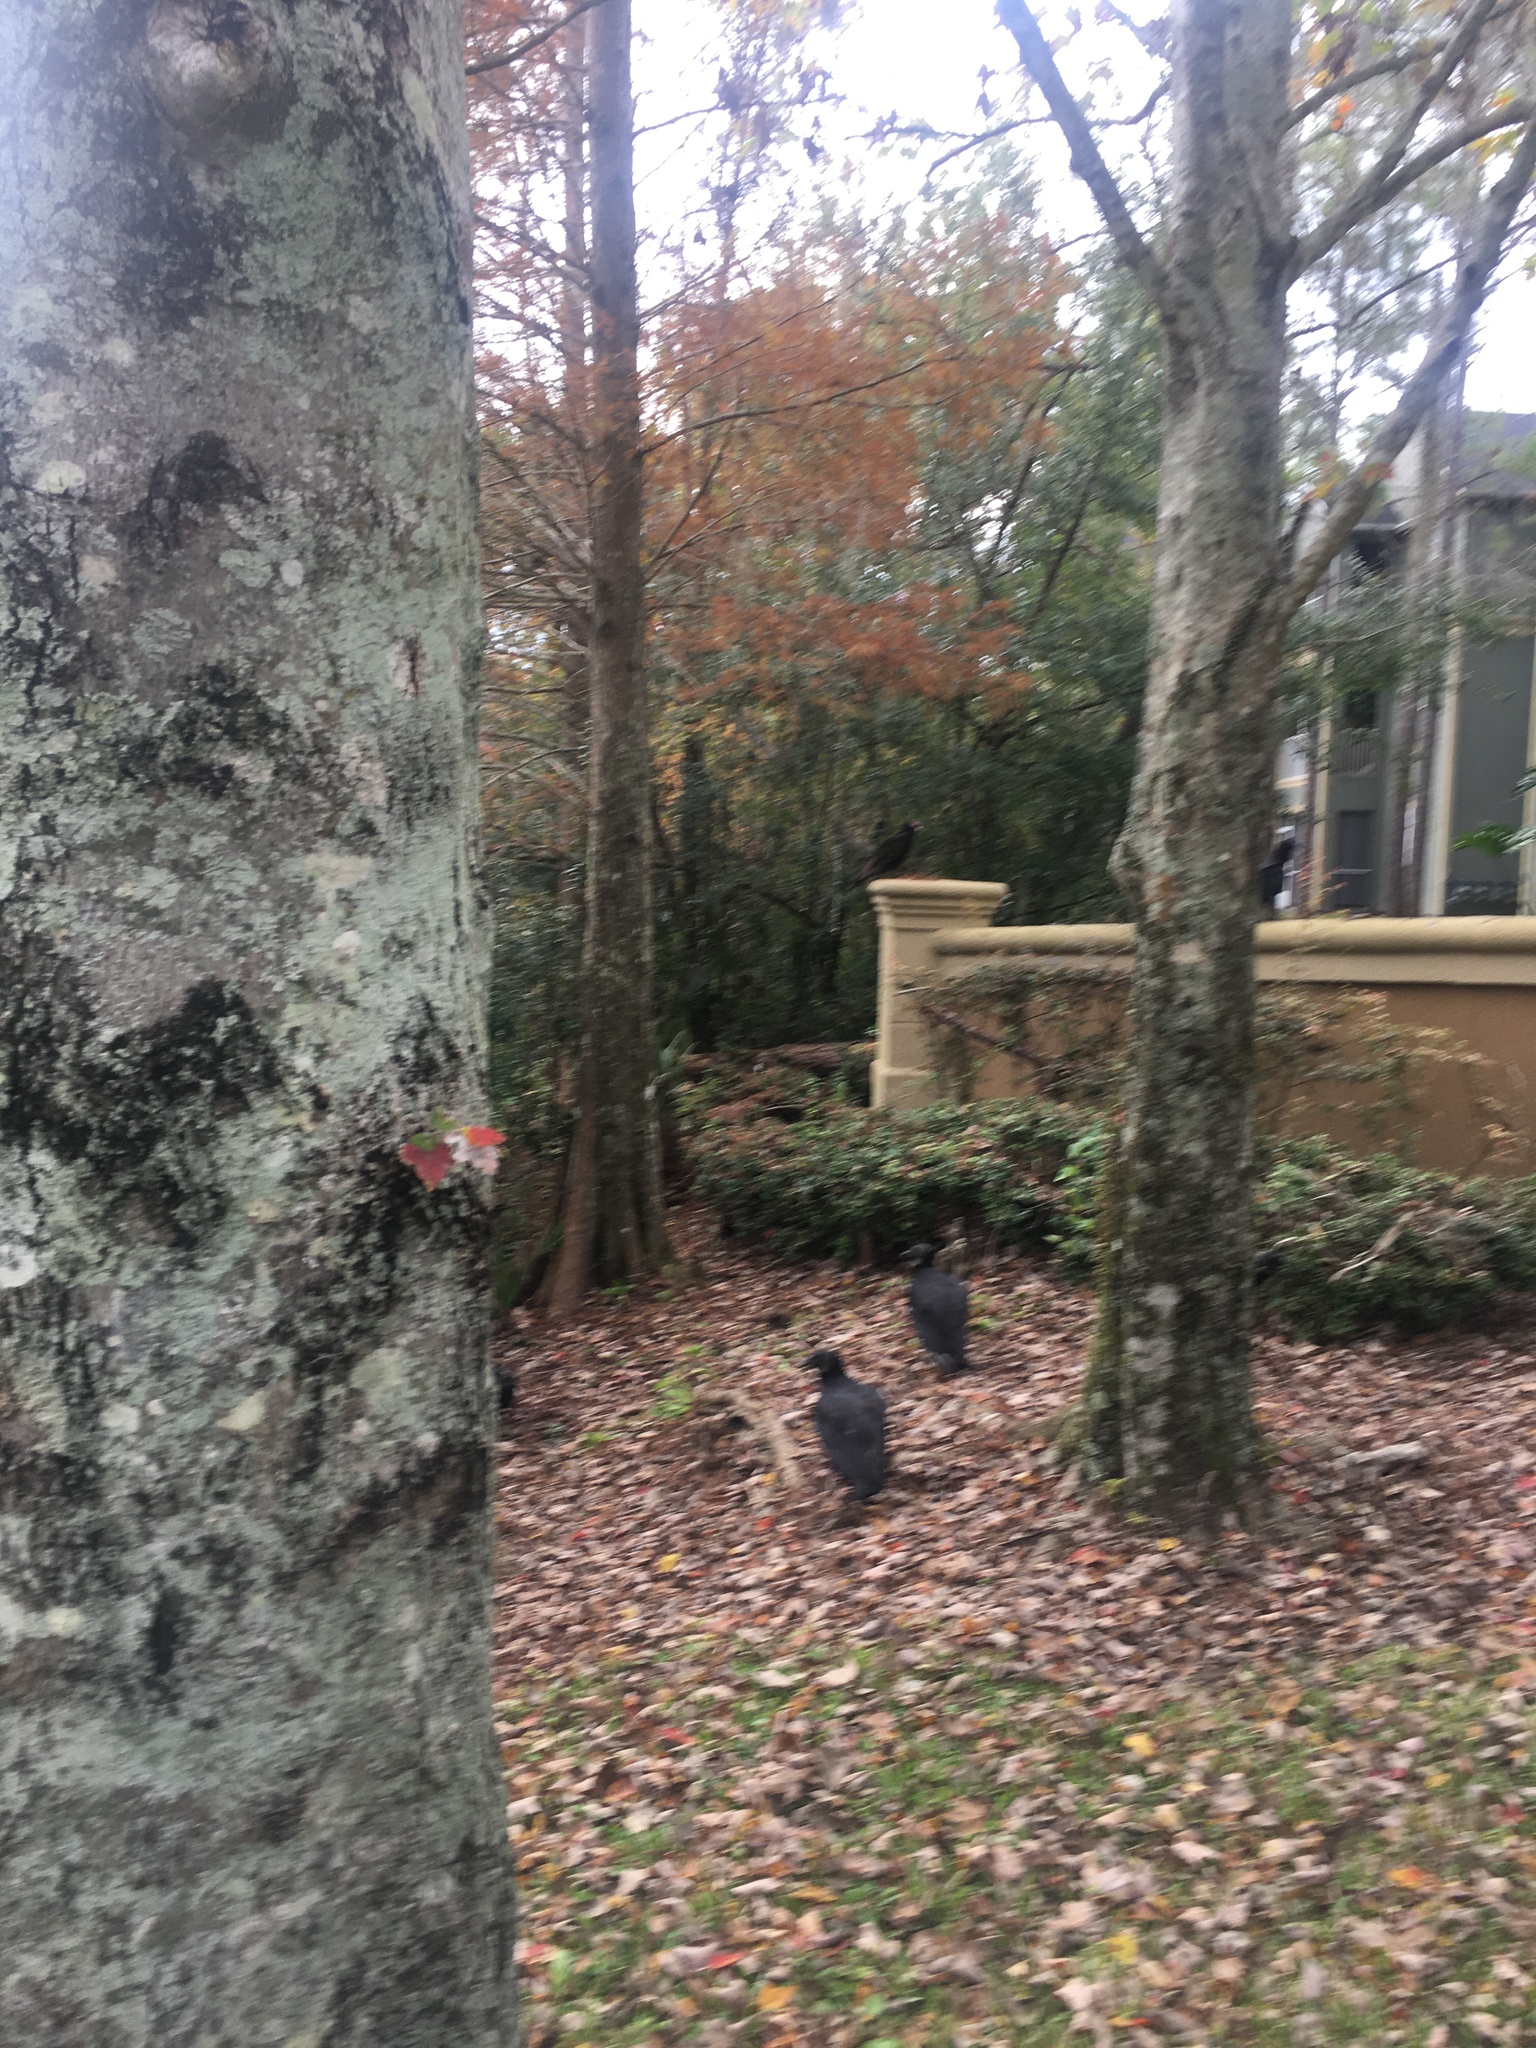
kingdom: Animalia
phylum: Chordata
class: Aves
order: Accipitriformes
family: Cathartidae
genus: Coragyps
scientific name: Coragyps atratus
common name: Black vulture
